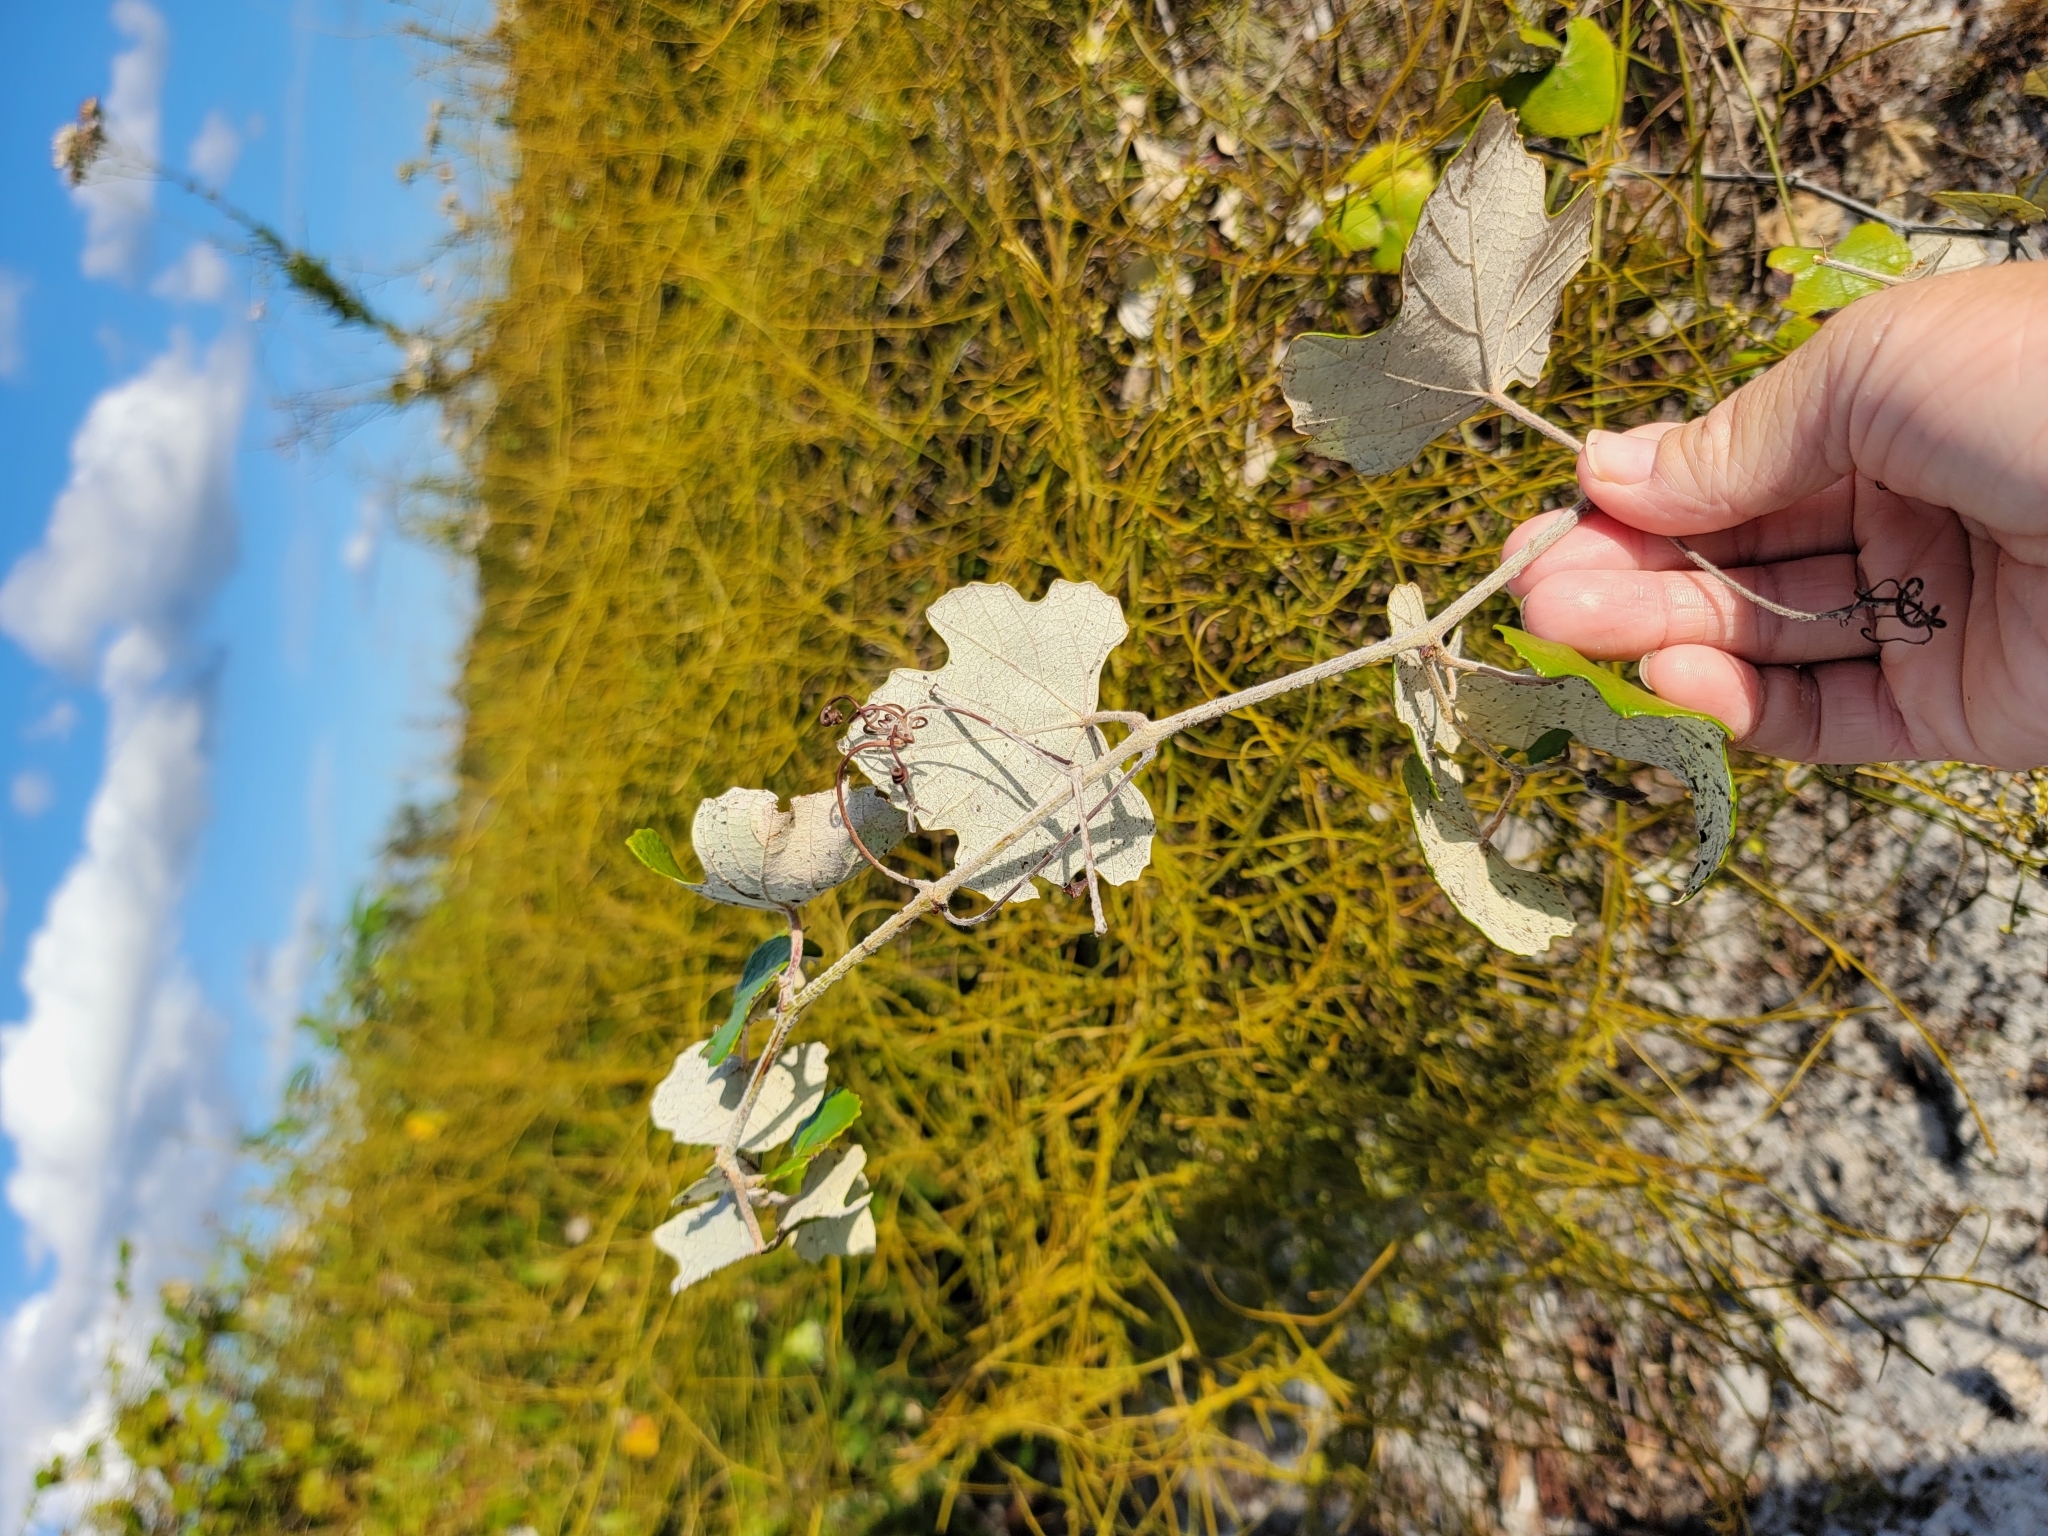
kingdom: Plantae
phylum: Tracheophyta
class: Magnoliopsida
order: Vitales
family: Vitaceae
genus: Vitis
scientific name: Vitis shuttleworthii
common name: Caloosa grape
